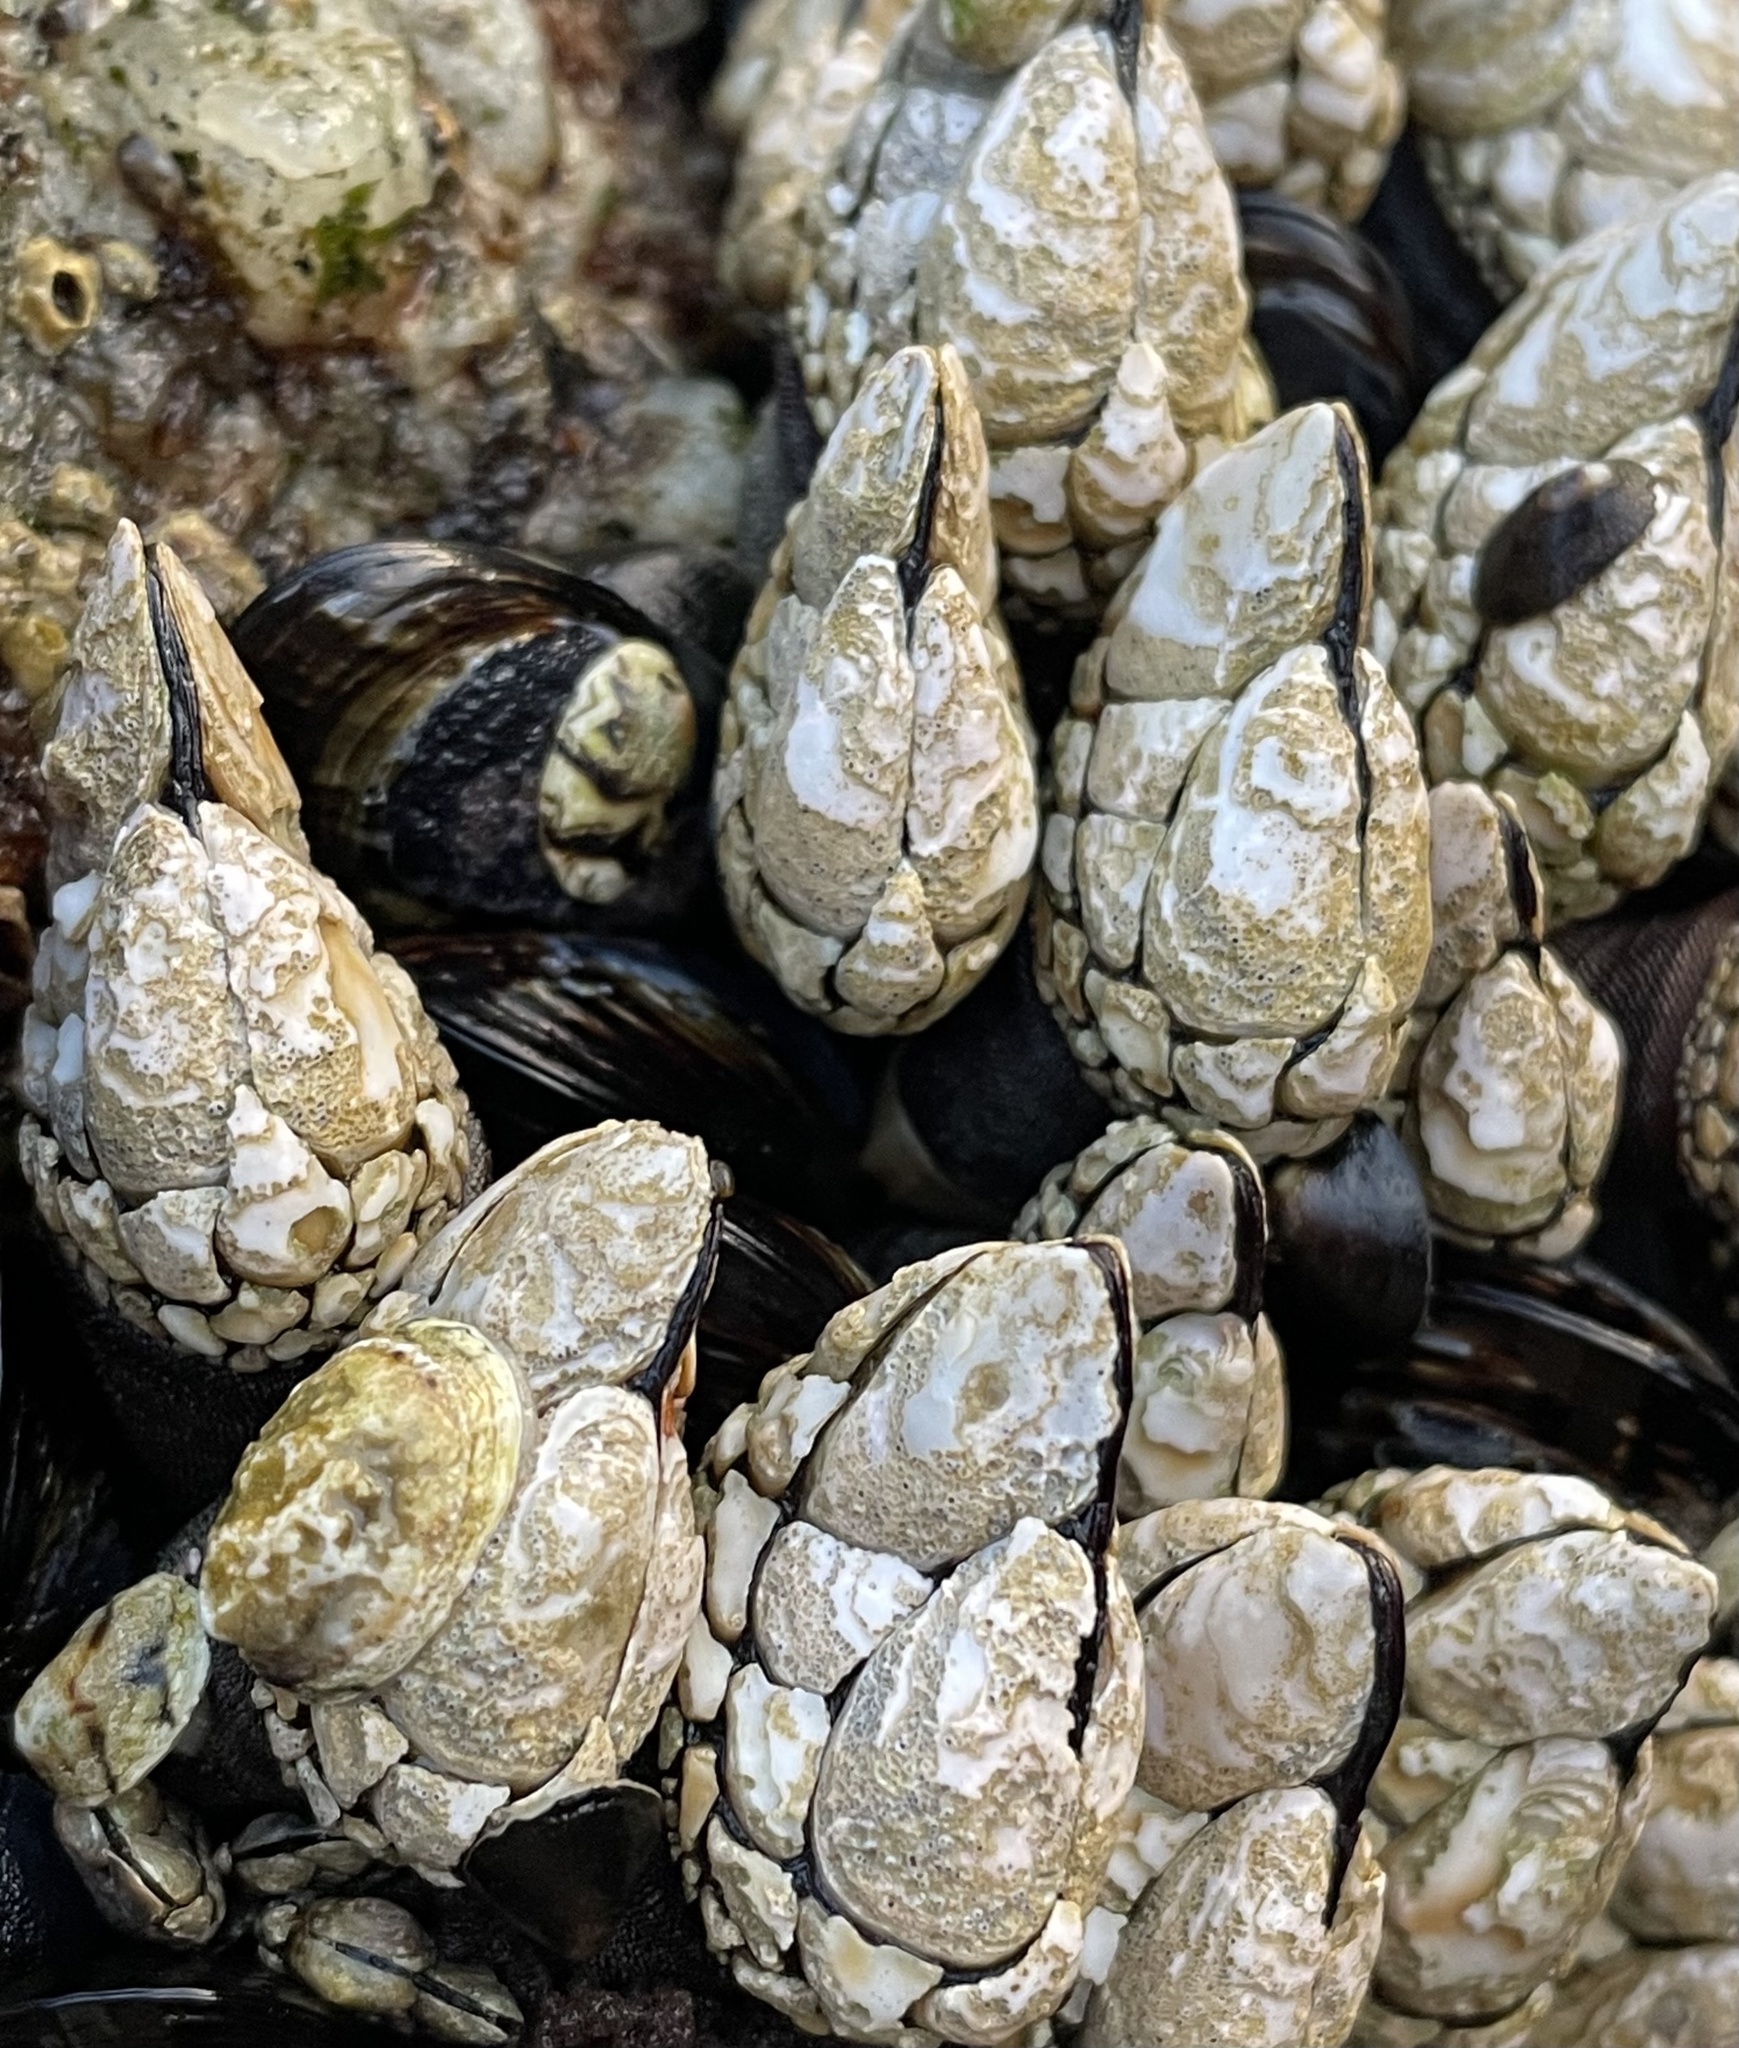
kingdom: Animalia
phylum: Arthropoda
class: Maxillopoda
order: Pedunculata
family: Pollicipedidae
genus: Pollicipes
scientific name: Pollicipes polymerus
